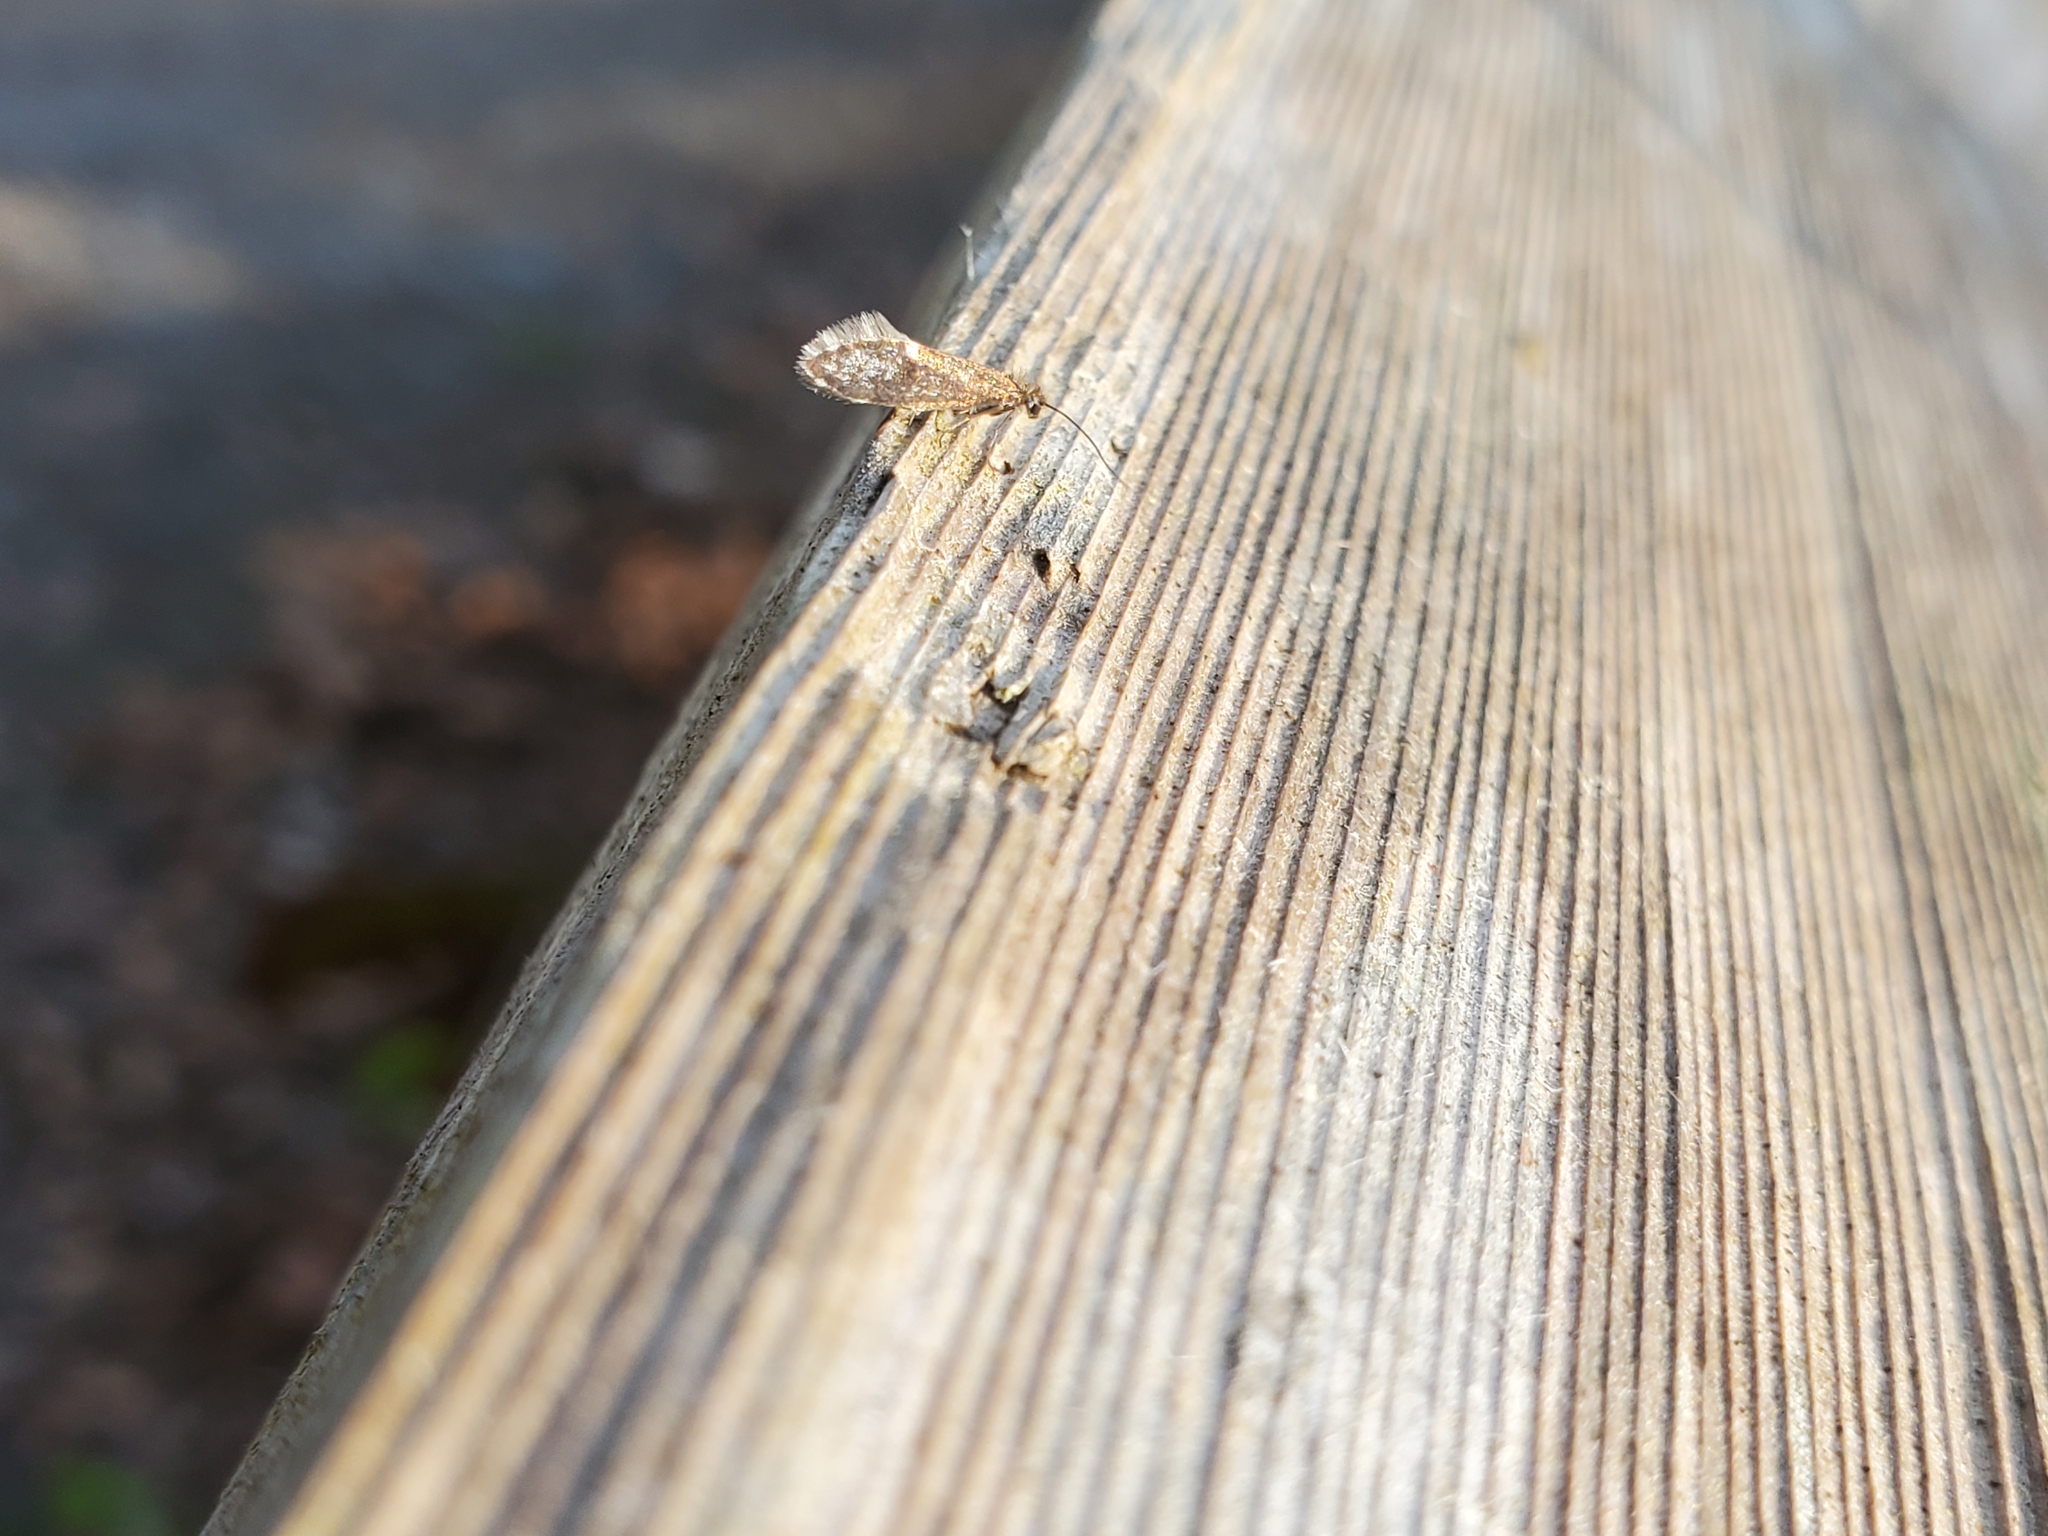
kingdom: Animalia
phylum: Arthropoda
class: Insecta
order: Lepidoptera
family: Eriocraniidae
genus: Eriocrania
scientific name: Eriocrania semipurpurella
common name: Early purple
